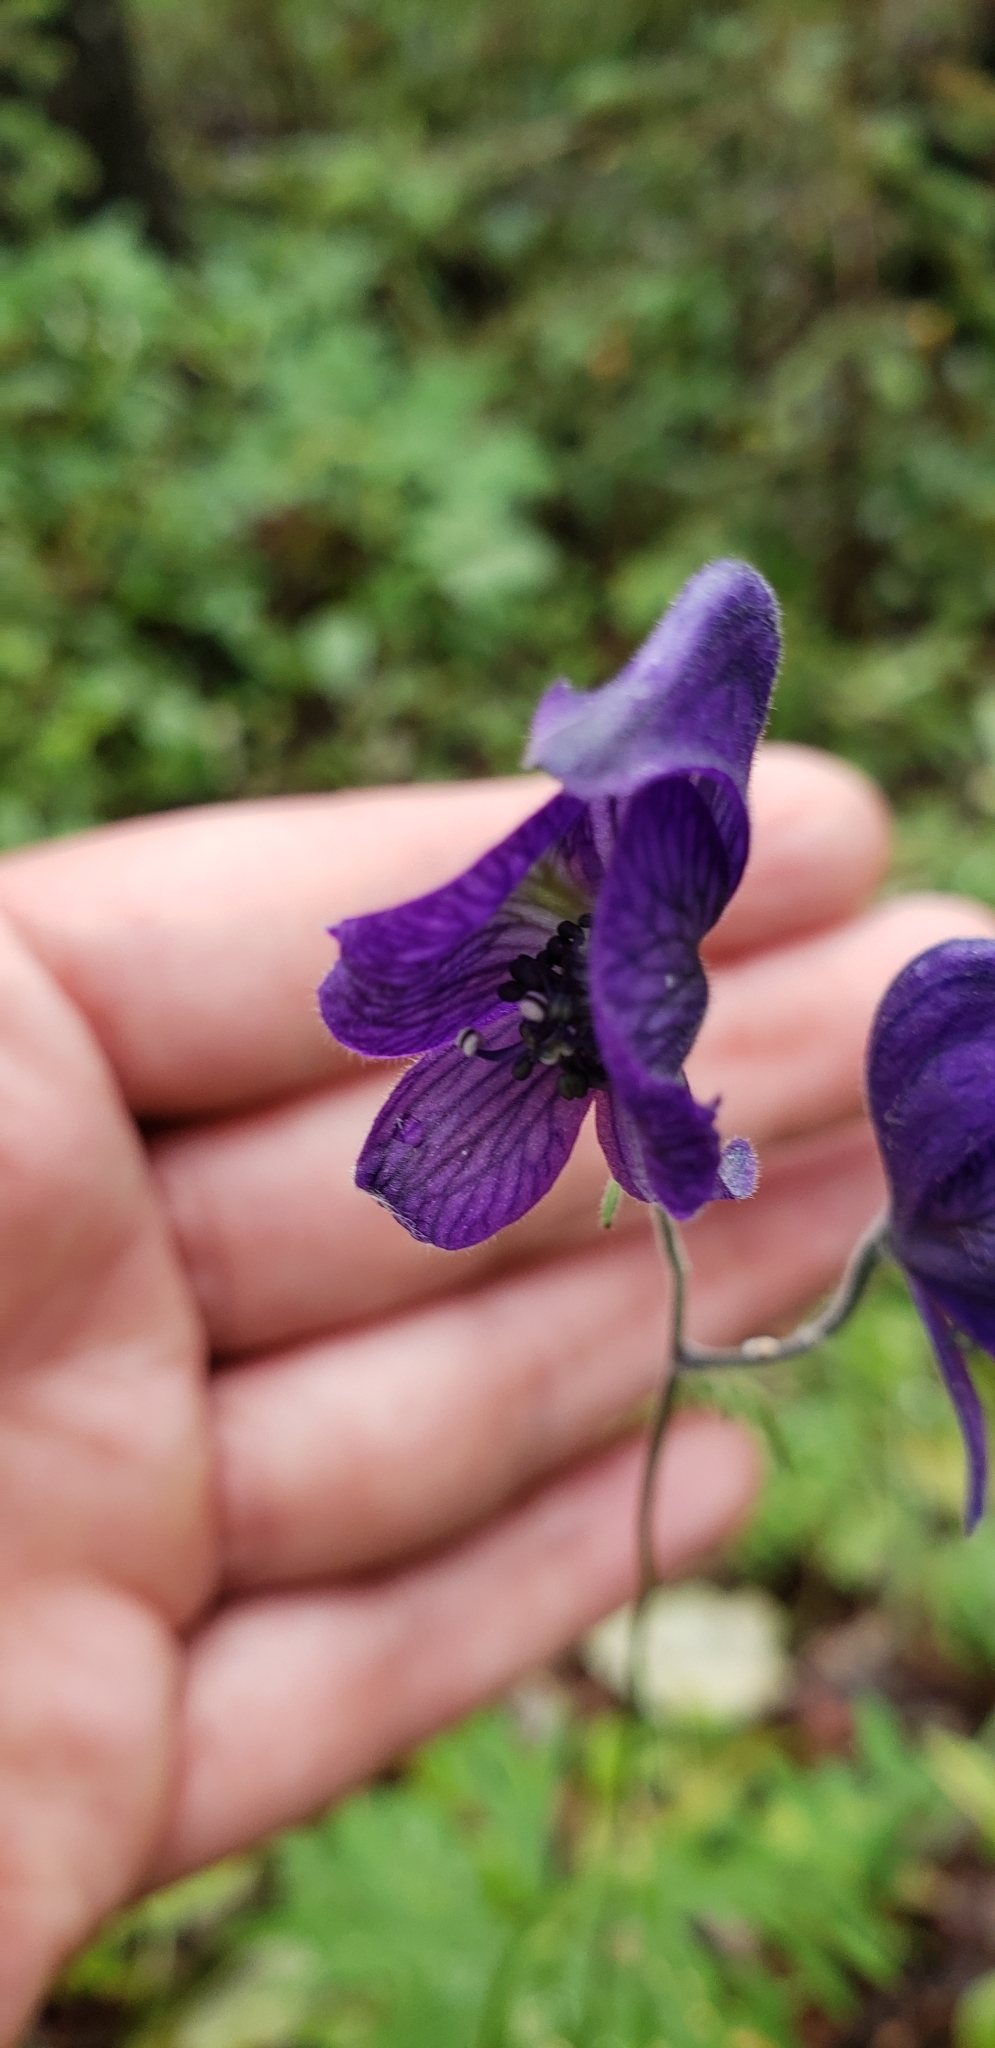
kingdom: Plantae
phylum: Tracheophyta
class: Magnoliopsida
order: Ranunculales
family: Ranunculaceae
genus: Aconitum
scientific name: Aconitum delphiniifolium
